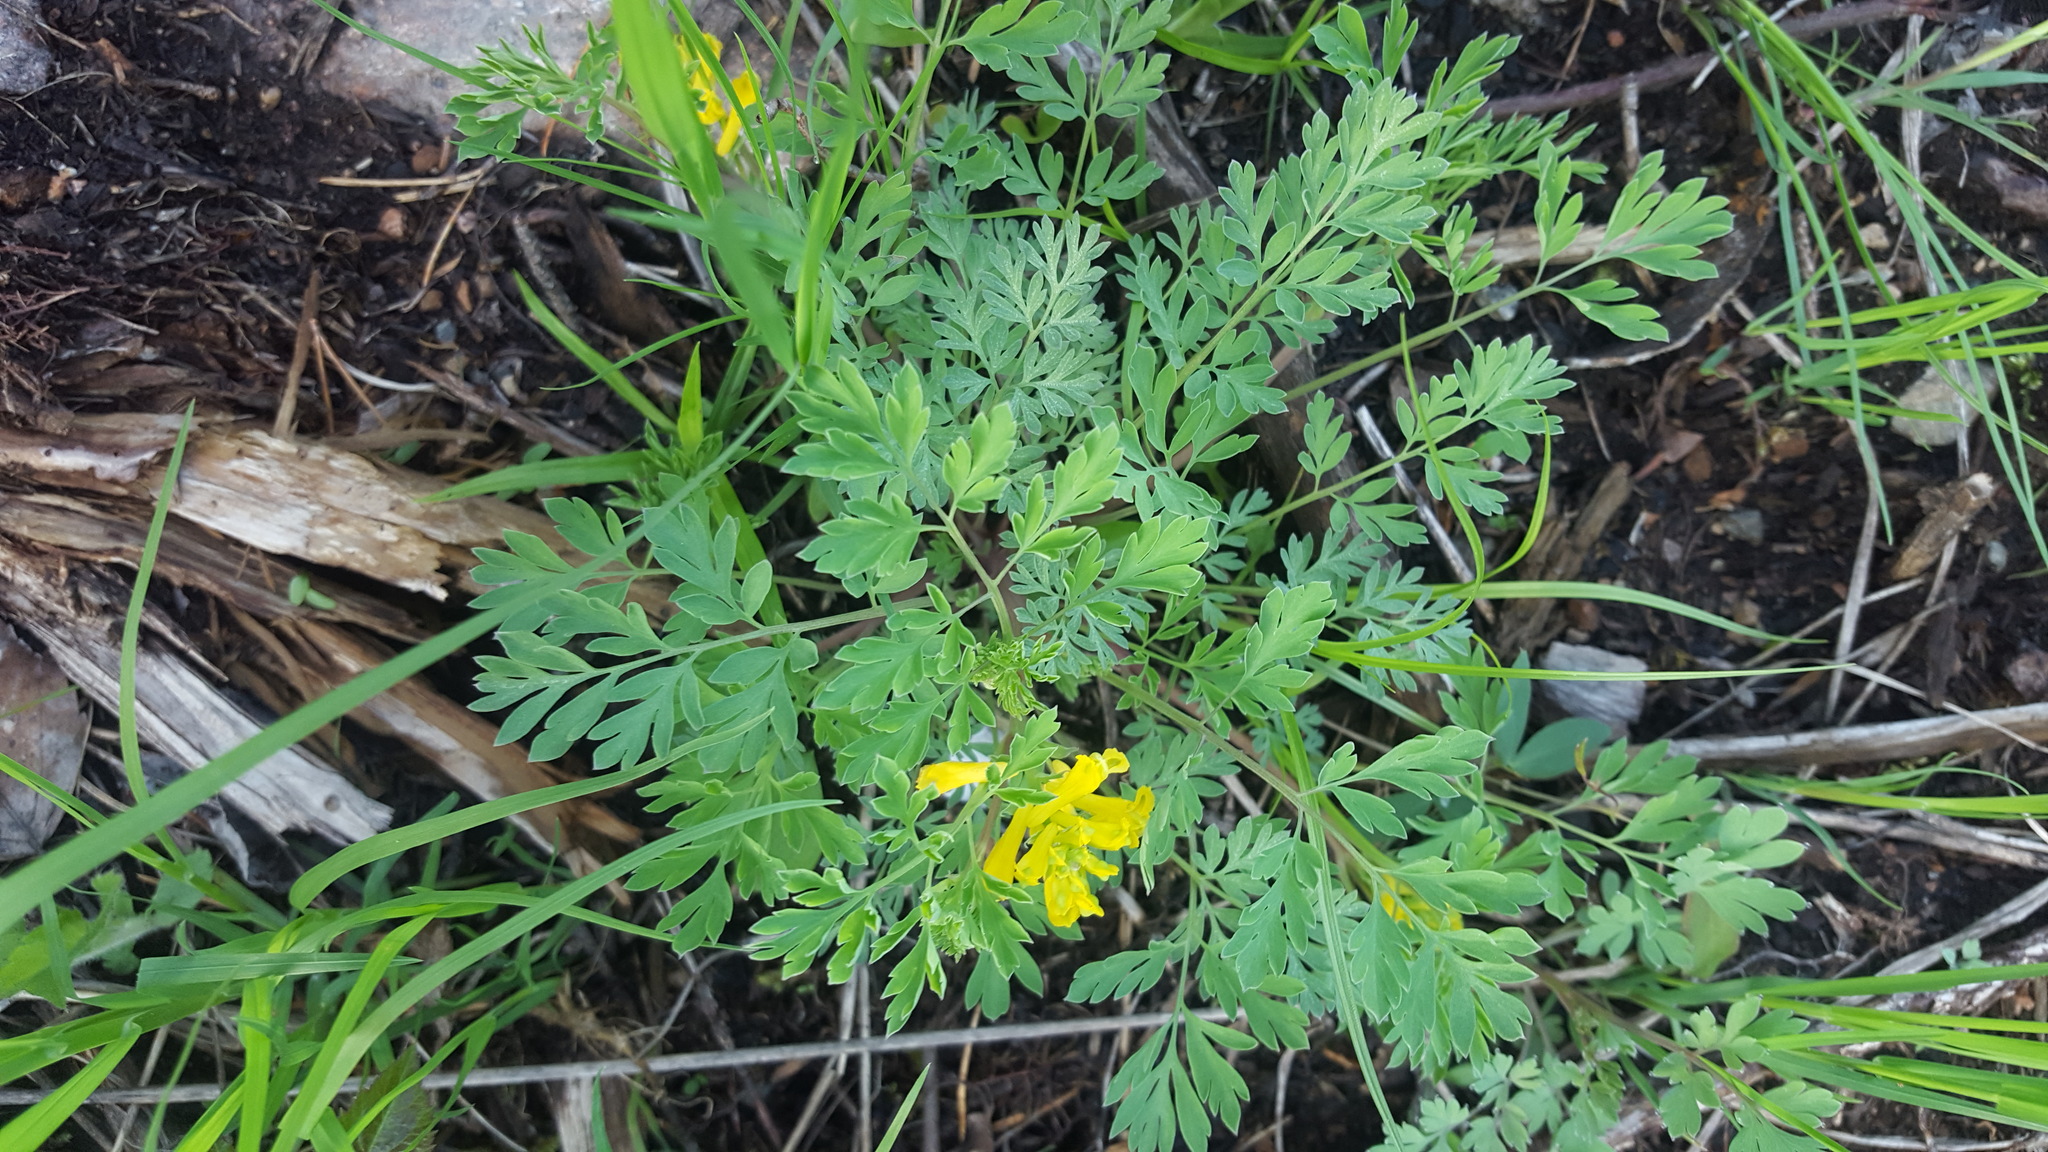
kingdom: Plantae
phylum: Tracheophyta
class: Magnoliopsida
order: Ranunculales
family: Papaveraceae
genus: Corydalis
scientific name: Corydalis aurea
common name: Golden corydalis
